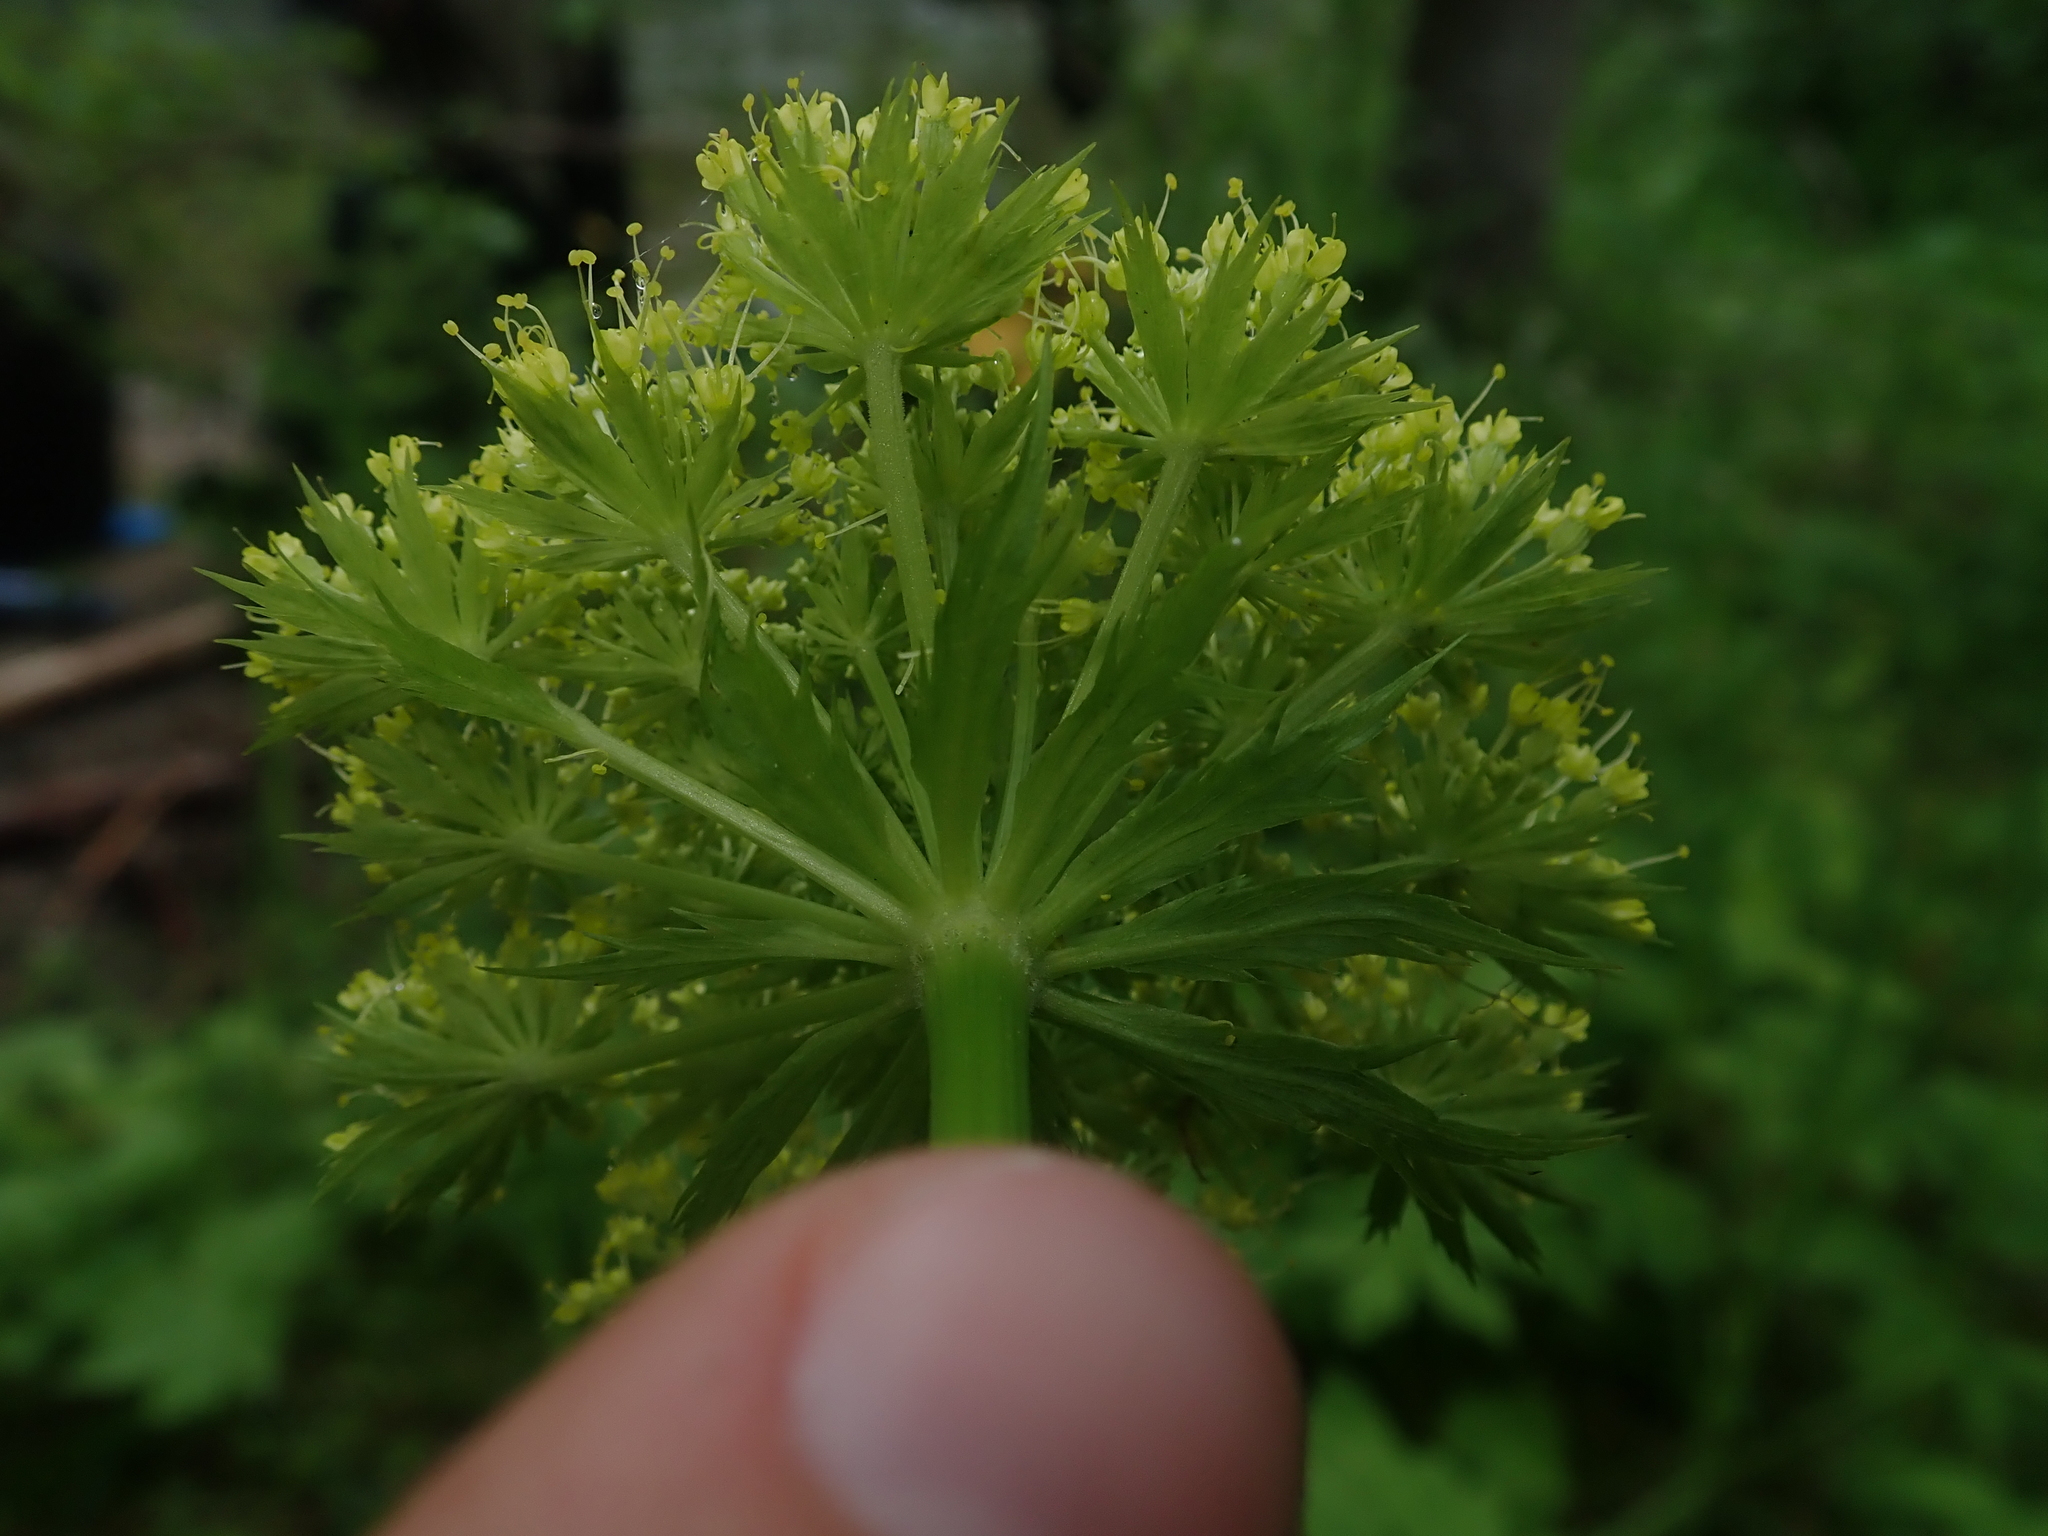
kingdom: Plantae
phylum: Tracheophyta
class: Magnoliopsida
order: Apiales
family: Apiaceae
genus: Angelica
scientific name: Angelica dawsonii
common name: Dawson's angelica
